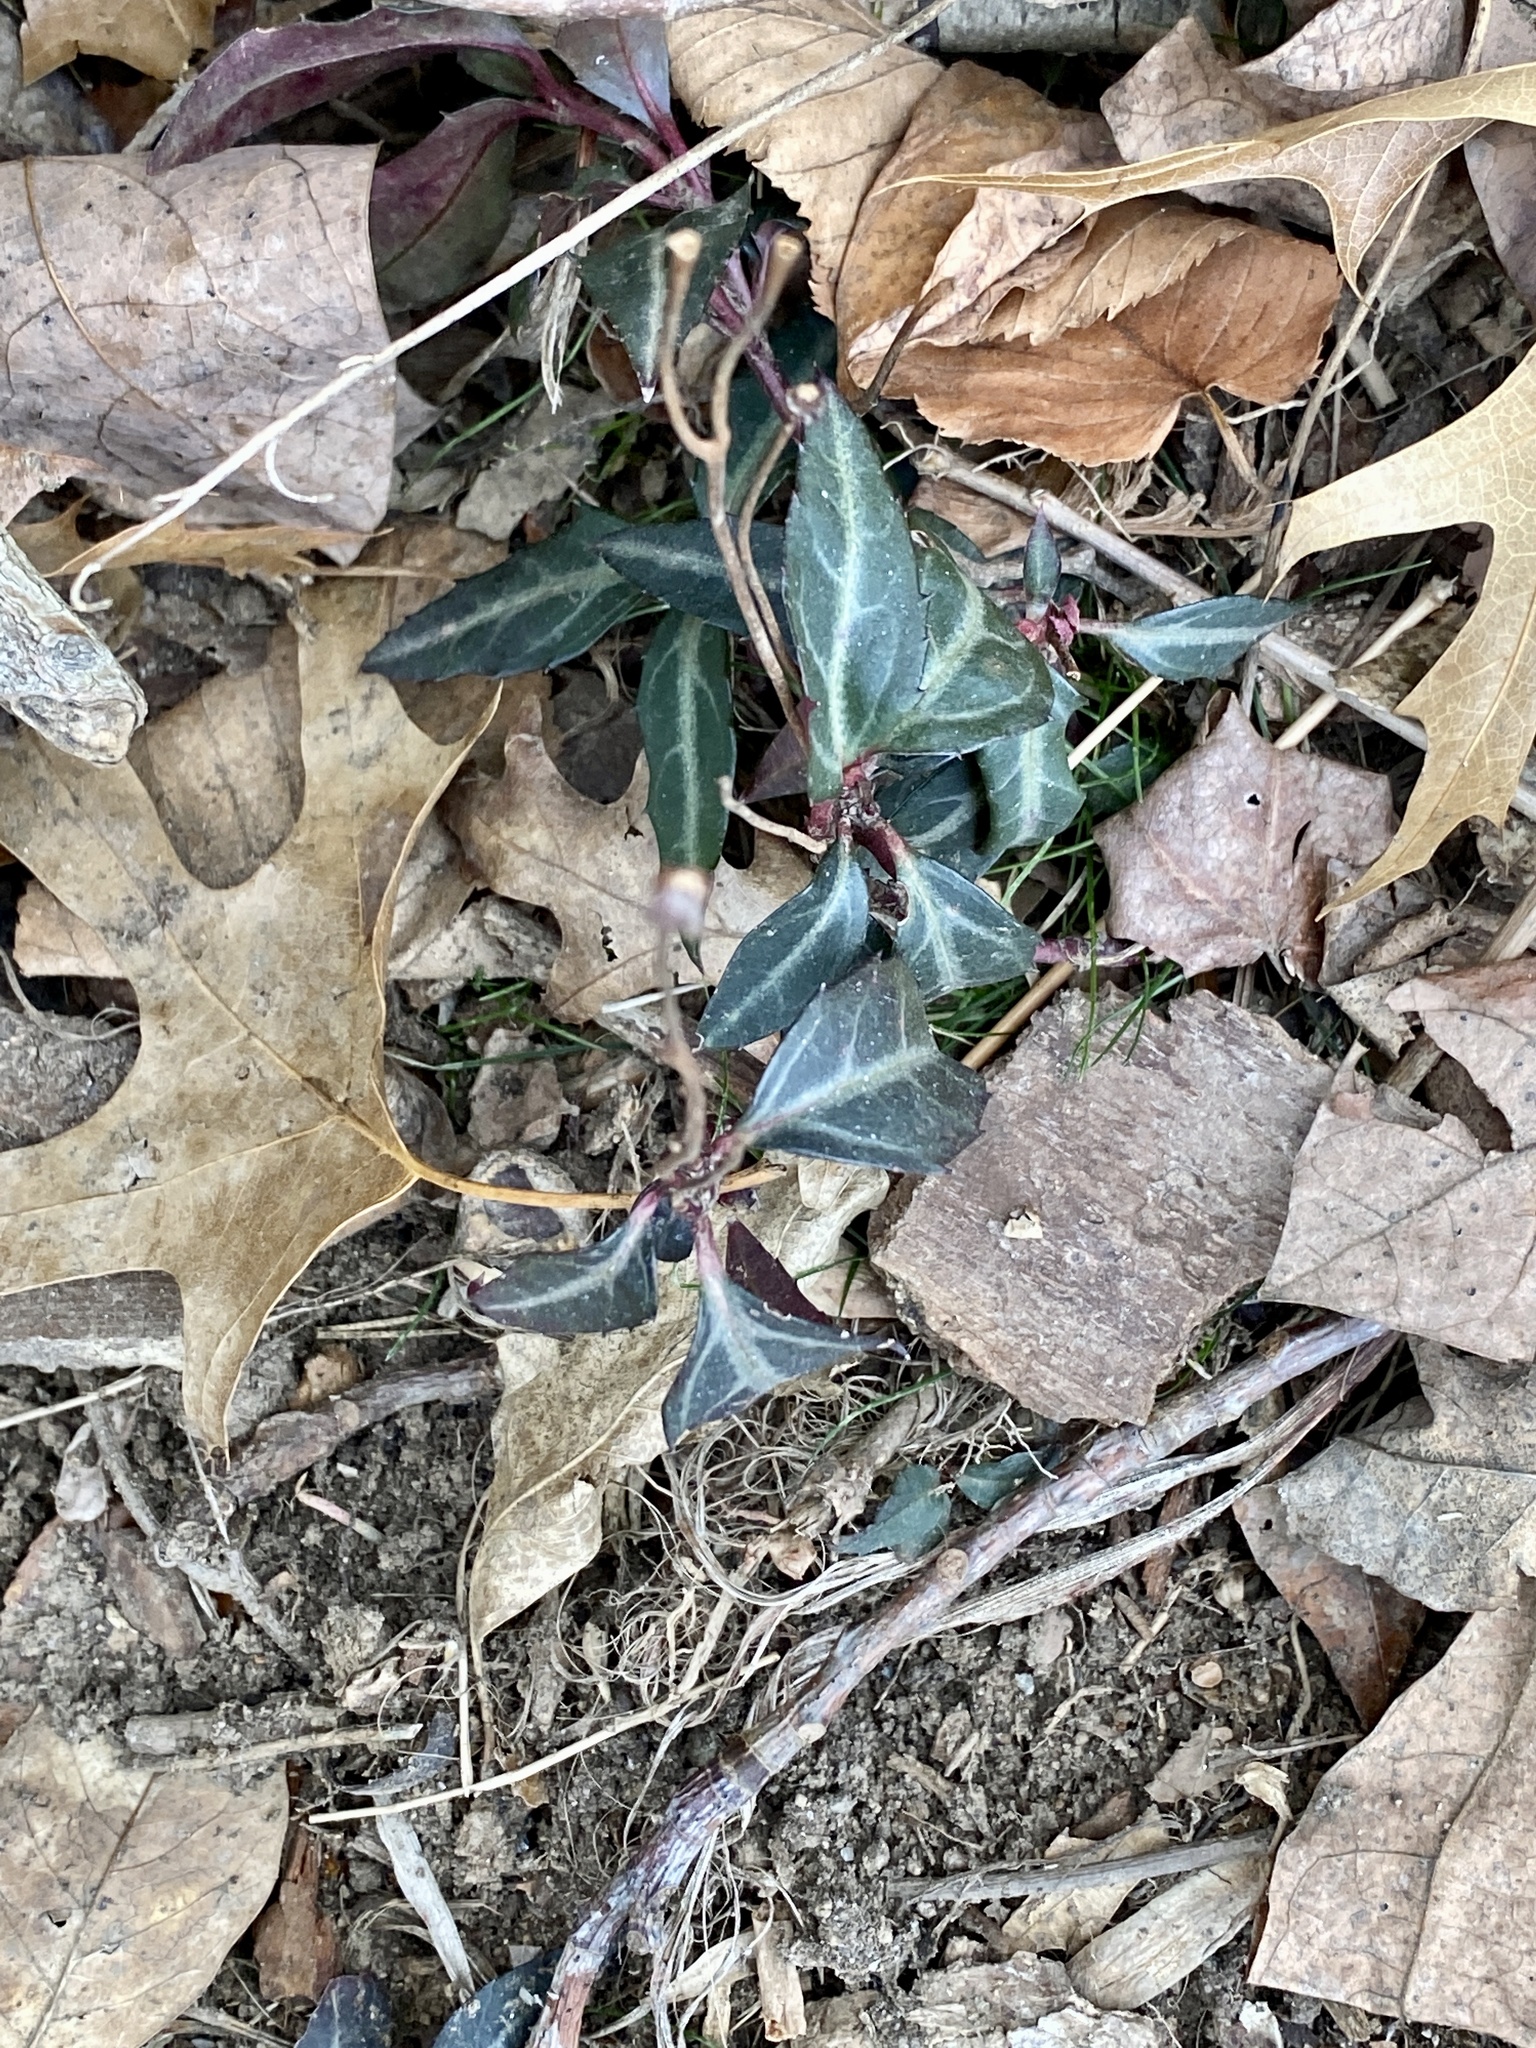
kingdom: Plantae
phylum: Tracheophyta
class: Magnoliopsida
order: Ericales
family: Ericaceae
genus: Chimaphila
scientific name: Chimaphila maculata
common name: Spotted pipsissewa
